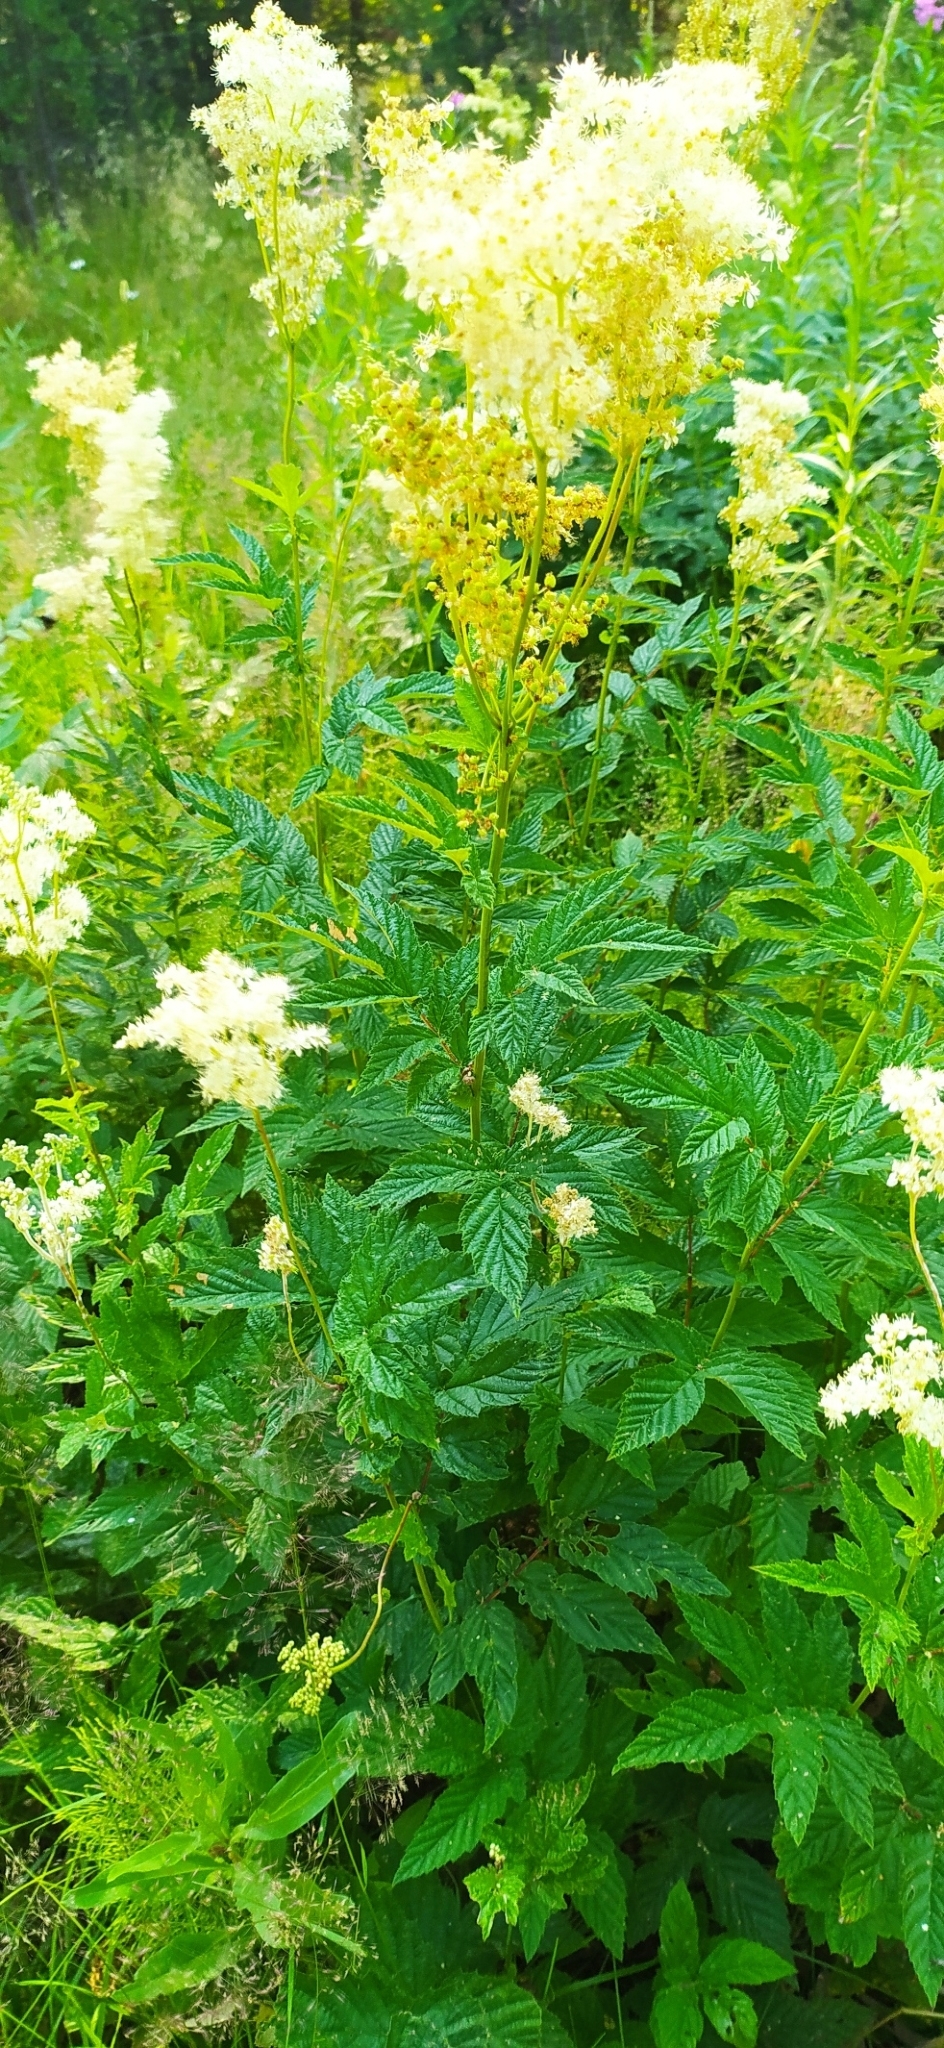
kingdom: Plantae
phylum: Tracheophyta
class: Magnoliopsida
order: Rosales
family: Rosaceae
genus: Filipendula
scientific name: Filipendula ulmaria
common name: Meadowsweet
